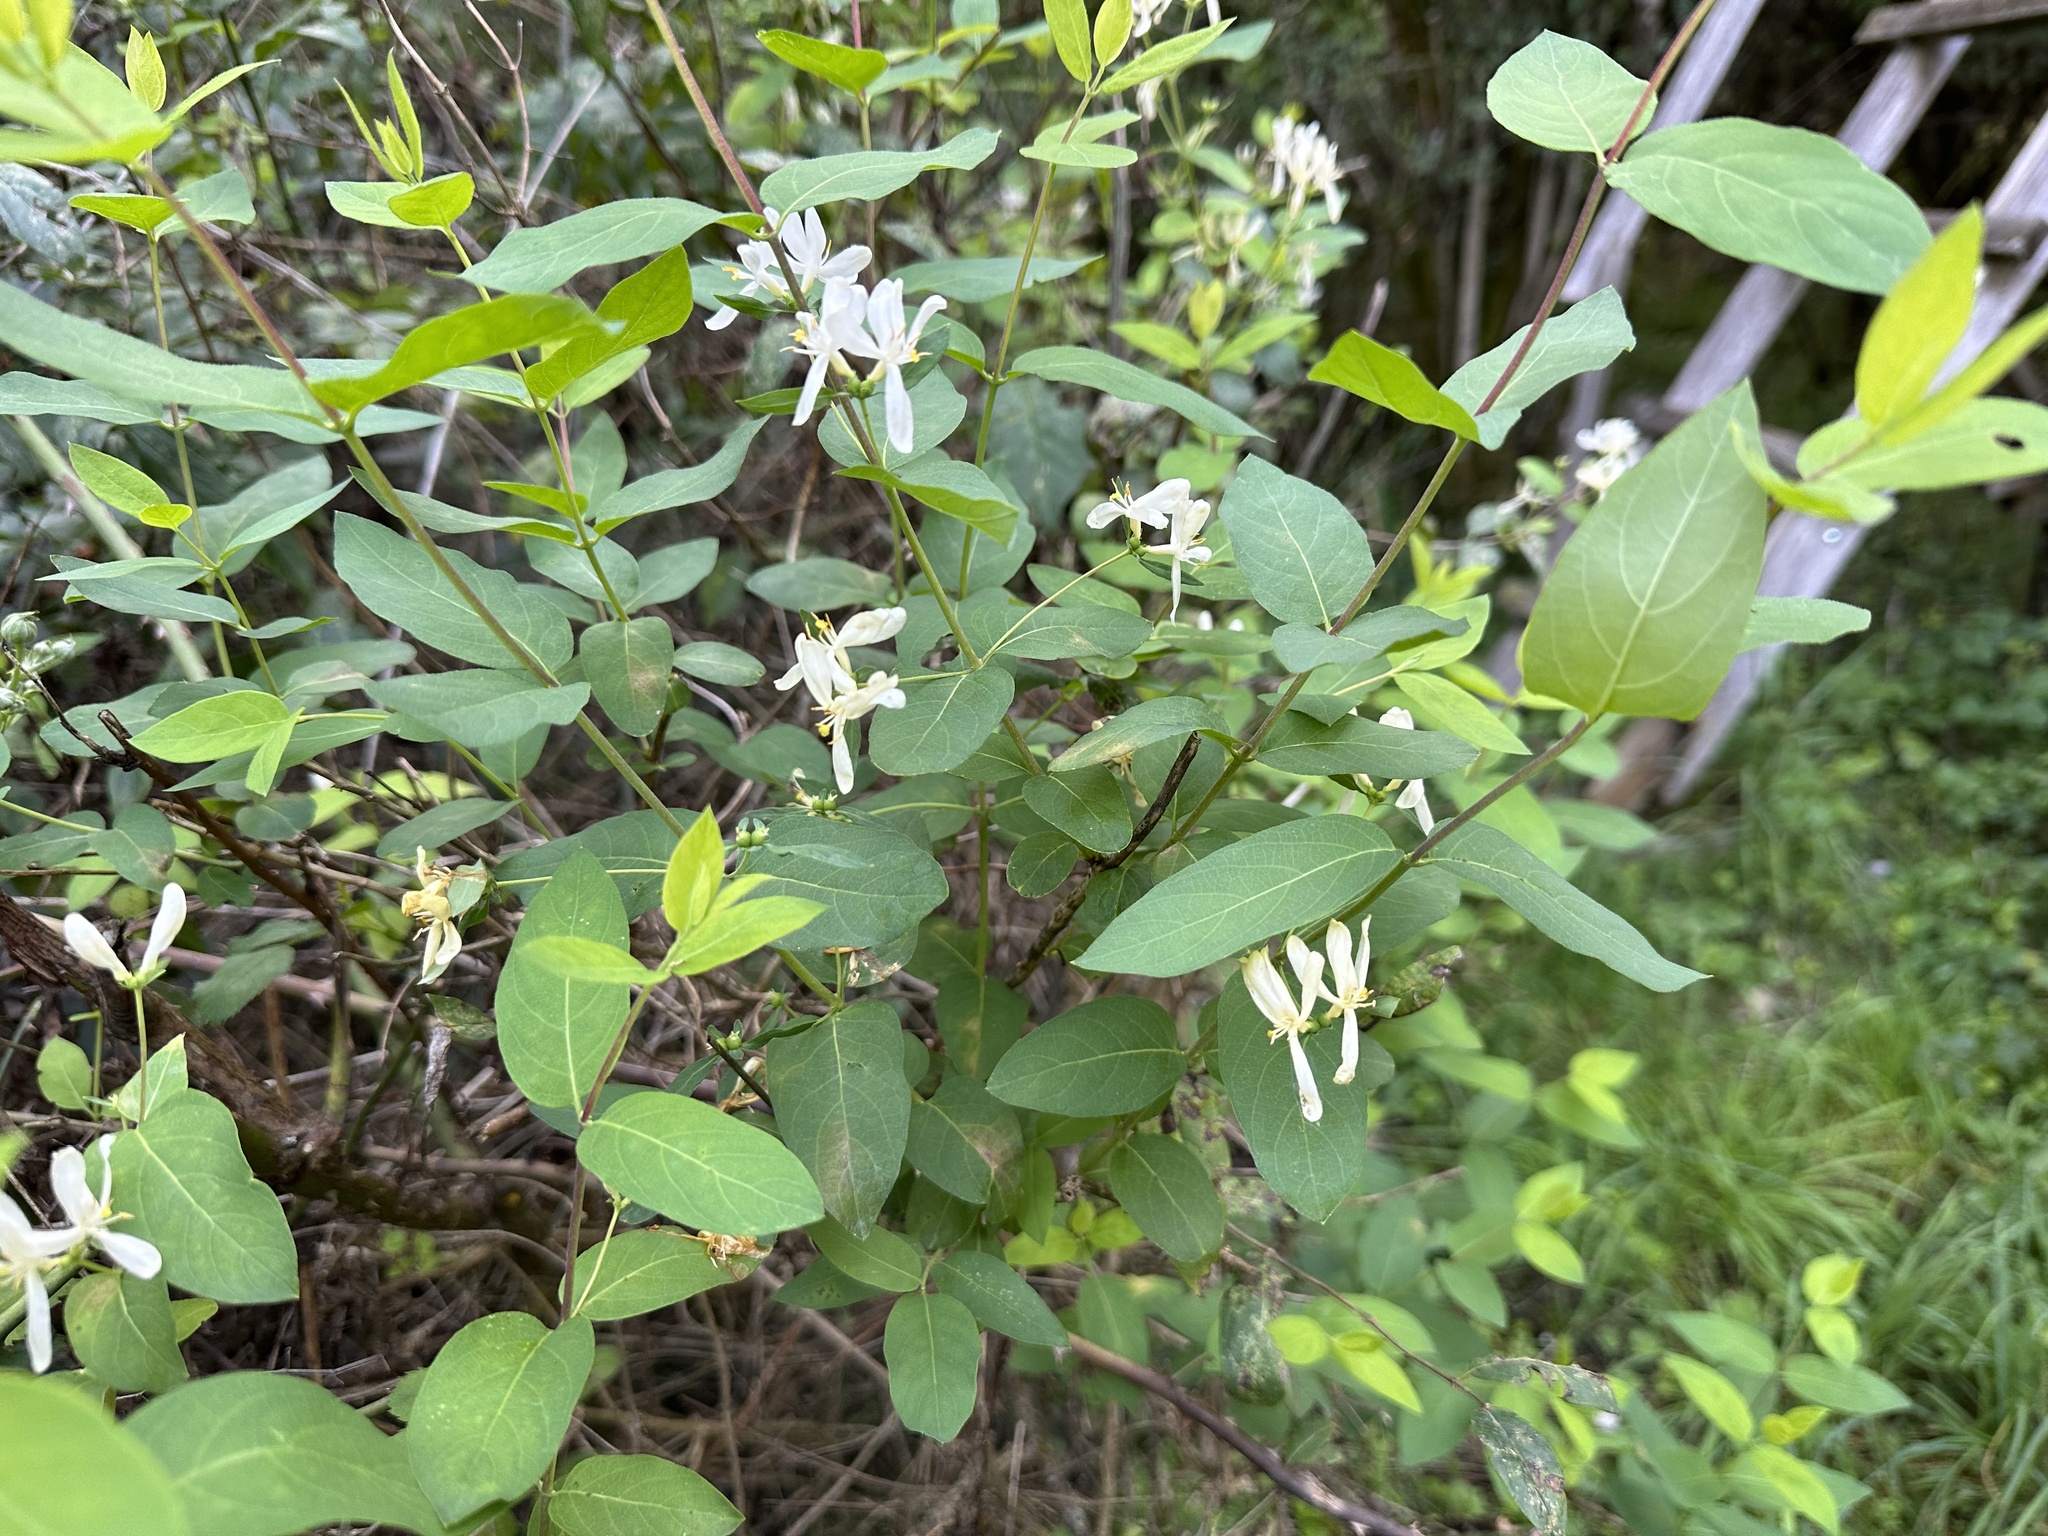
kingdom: Plantae
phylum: Tracheophyta
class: Magnoliopsida
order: Dipsacales
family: Caprifoliaceae
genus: Lonicera
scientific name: Lonicera tatarica
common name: Tatarian honeysuckle
